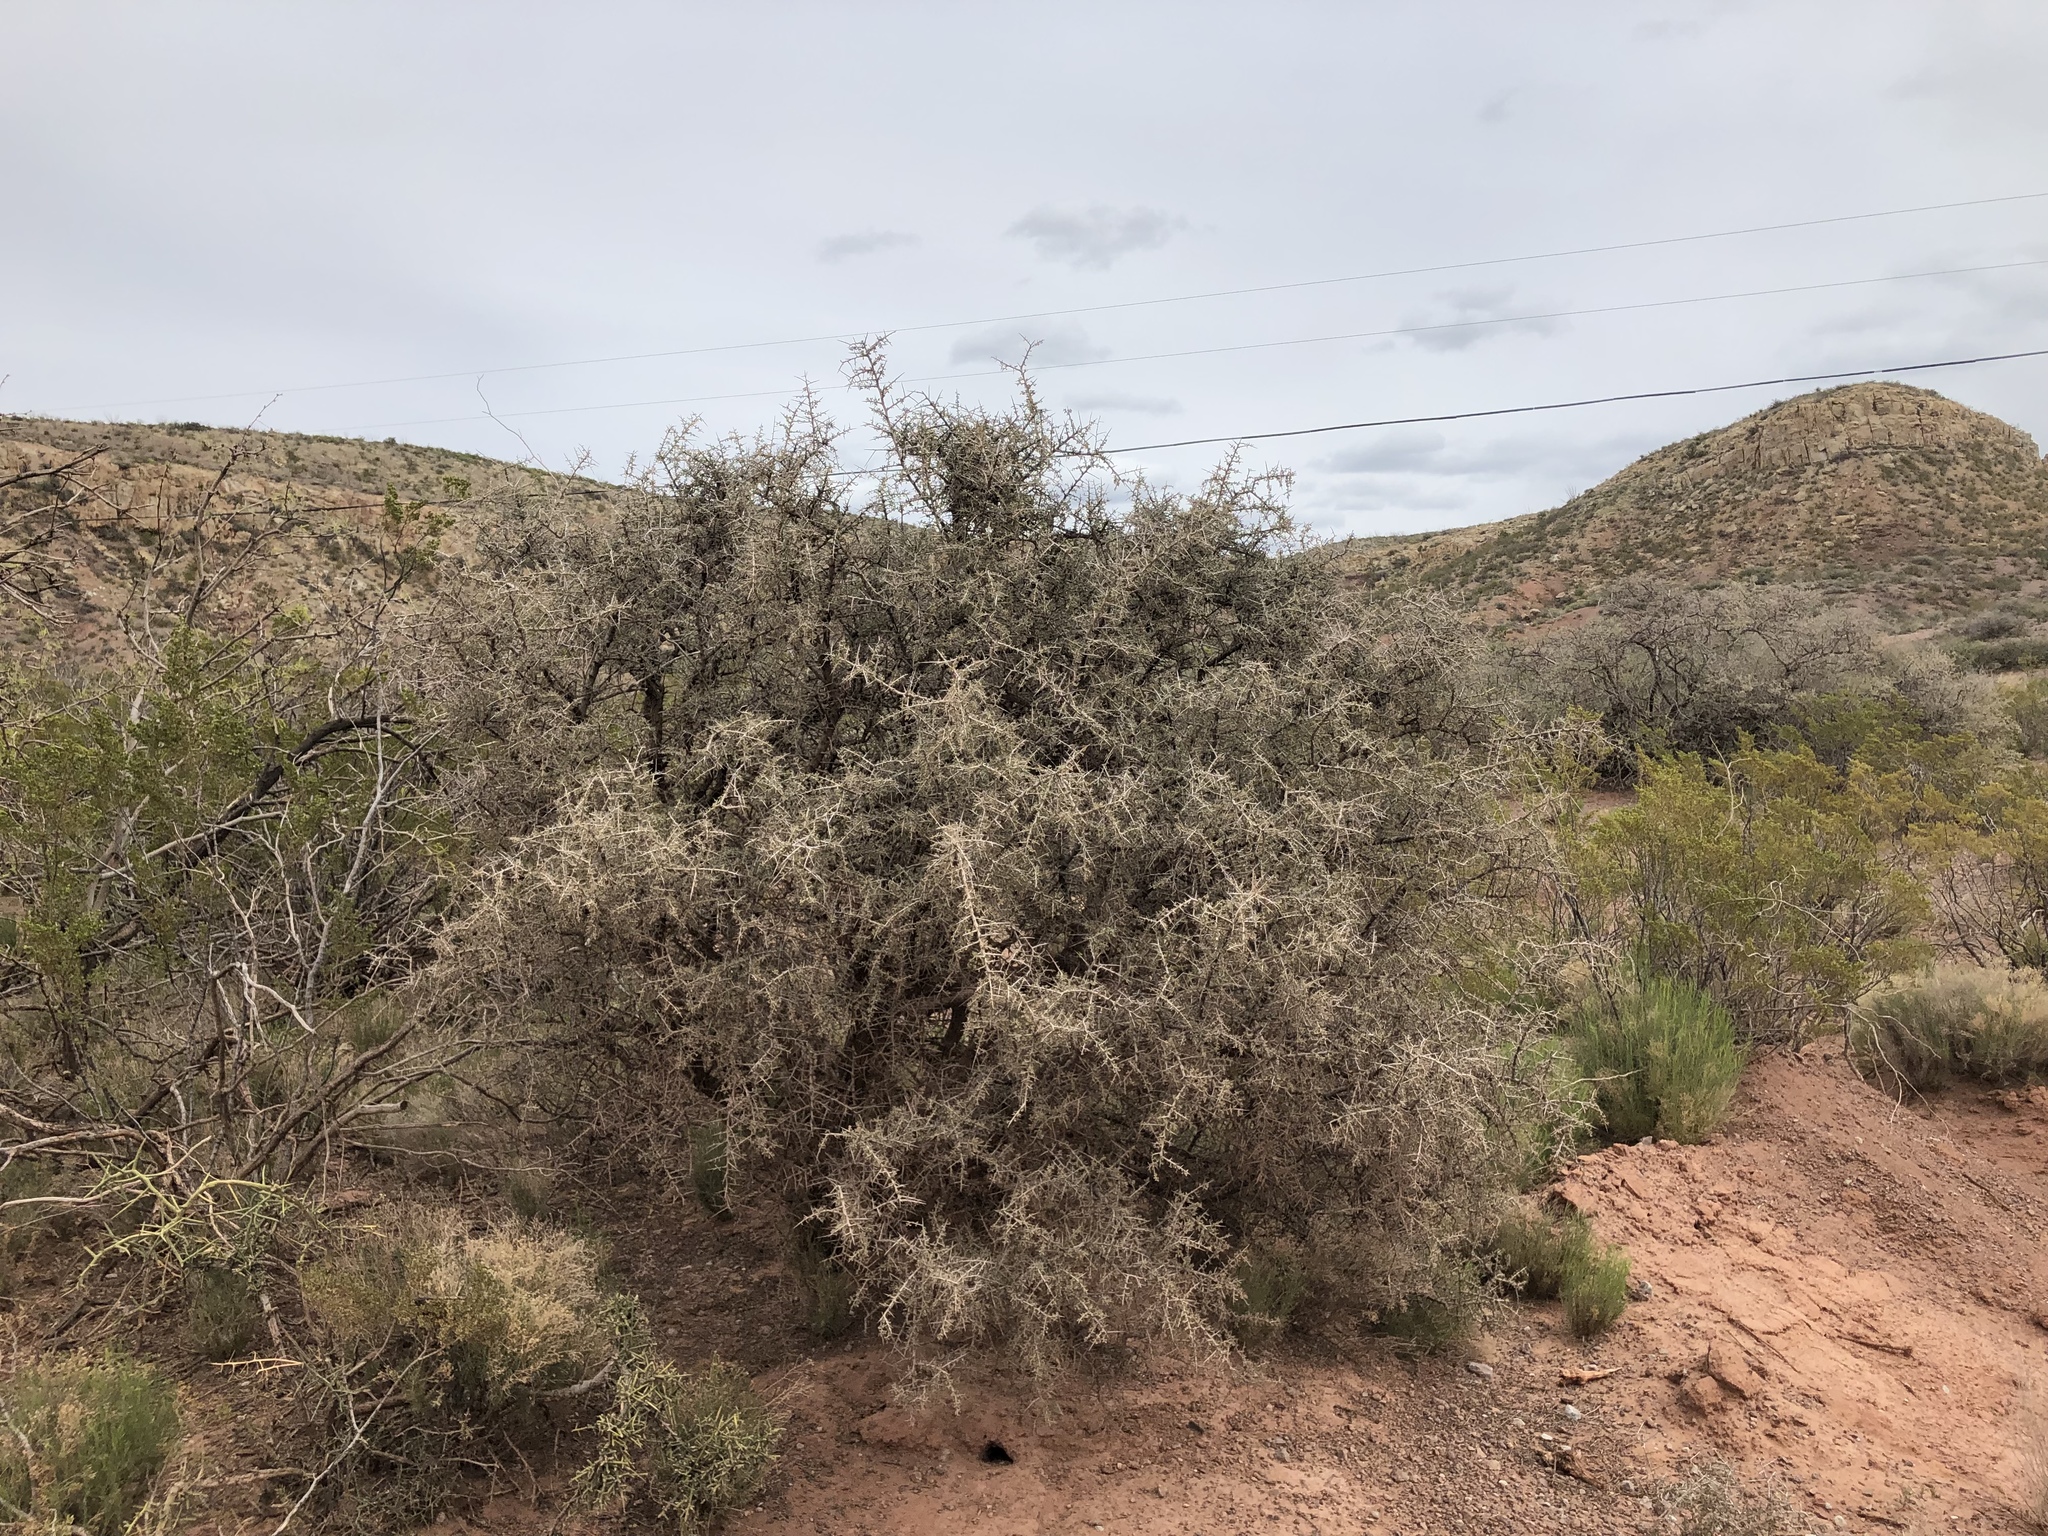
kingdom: Plantae
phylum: Tracheophyta
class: Magnoliopsida
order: Rosales
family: Rhamnaceae
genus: Condalia
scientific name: Condalia warnockii
